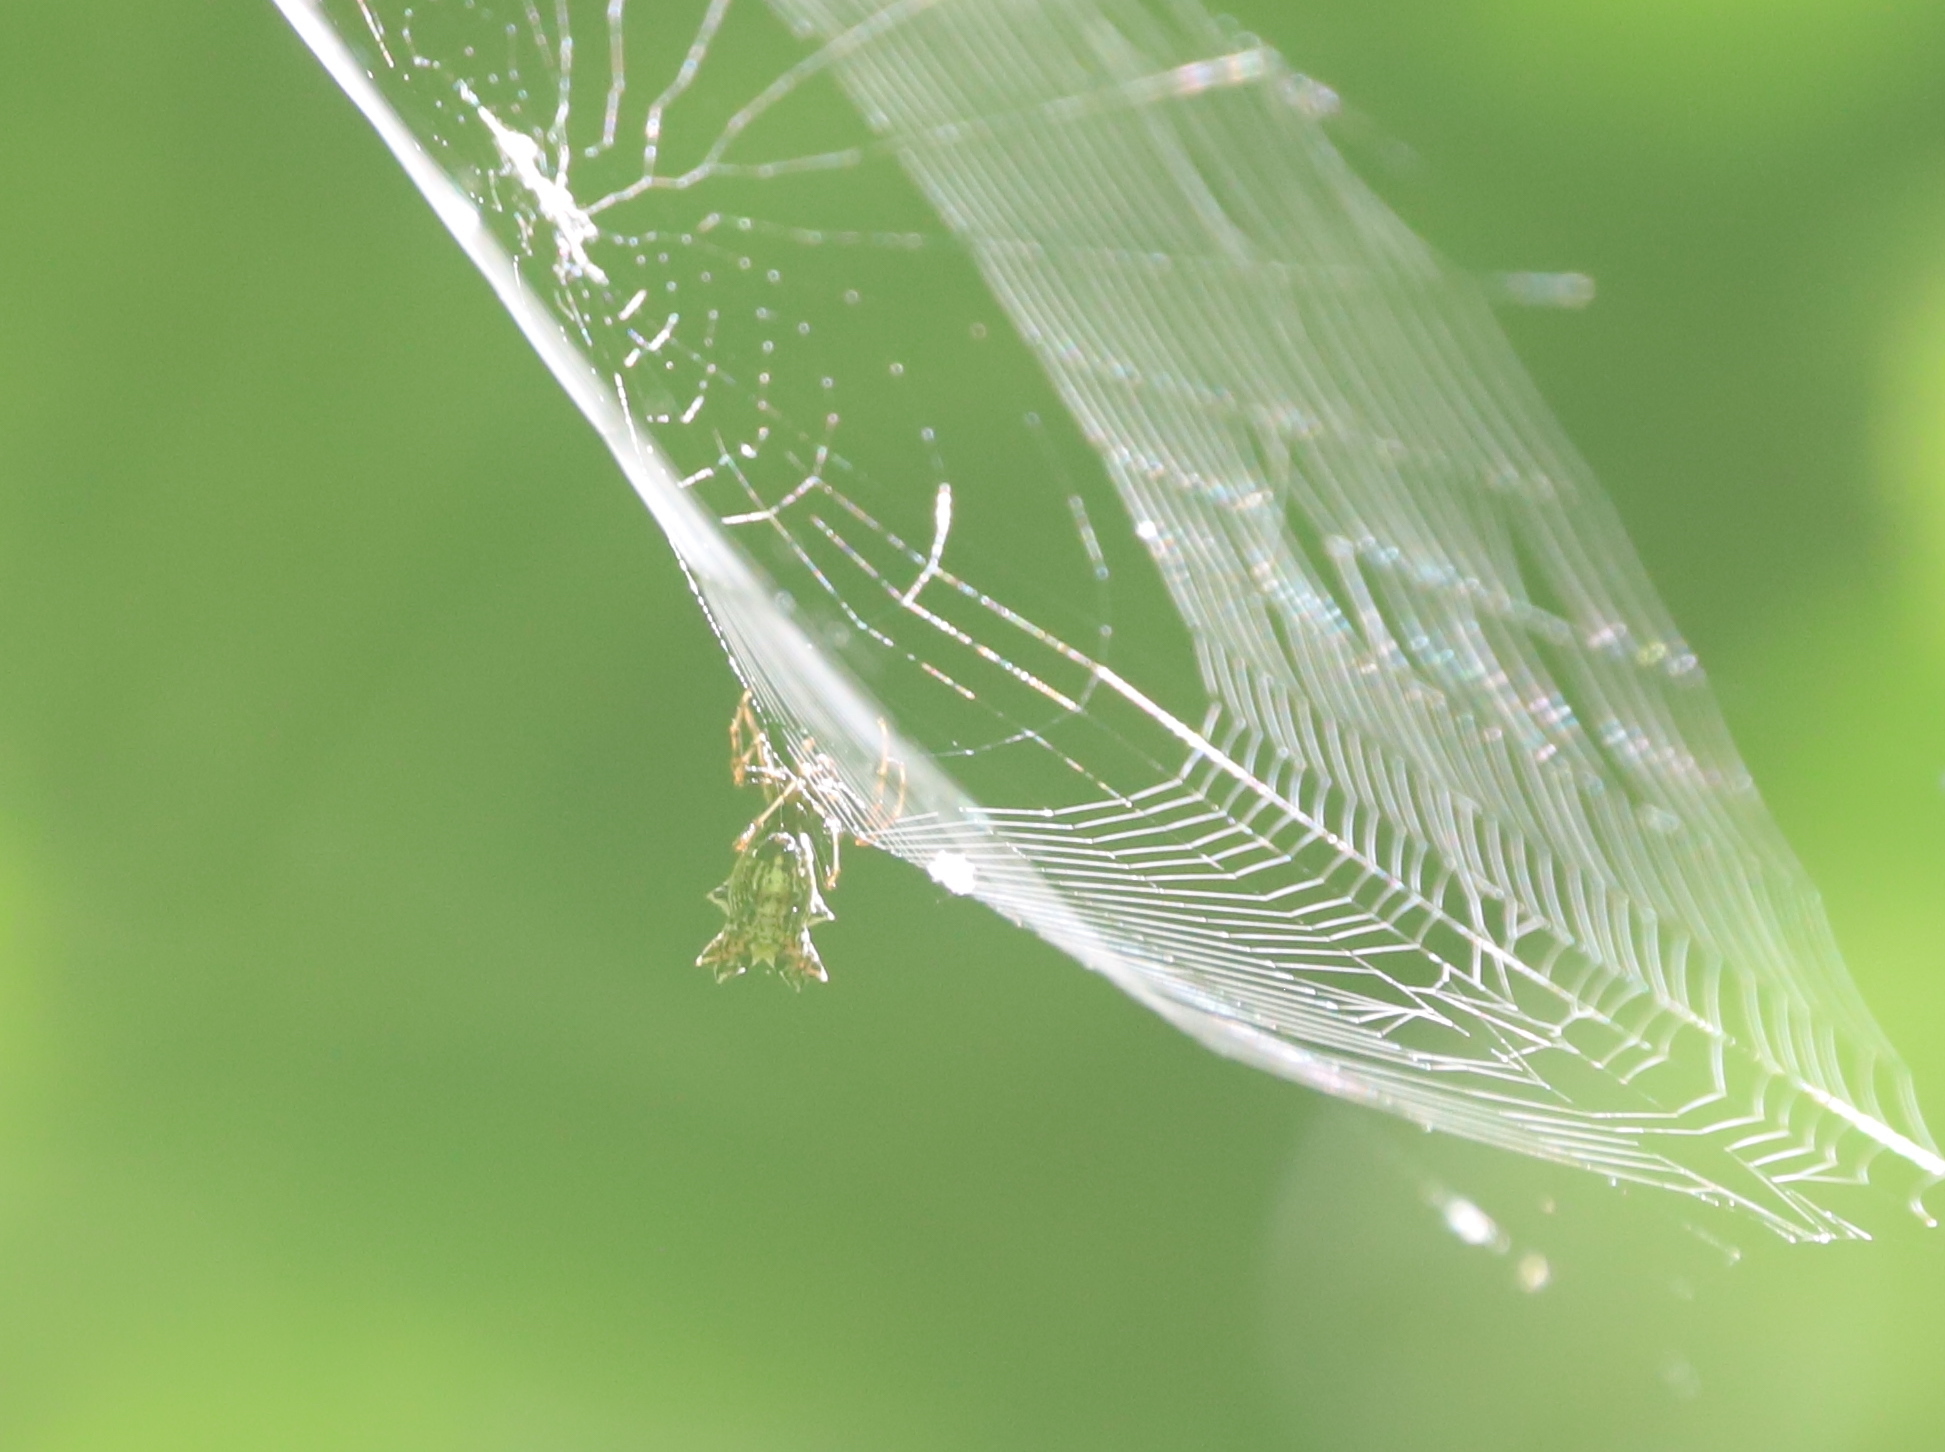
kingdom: Animalia
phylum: Arthropoda
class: Arachnida
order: Araneae
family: Araneidae
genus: Micrathena
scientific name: Micrathena gracilis
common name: Orb weavers
